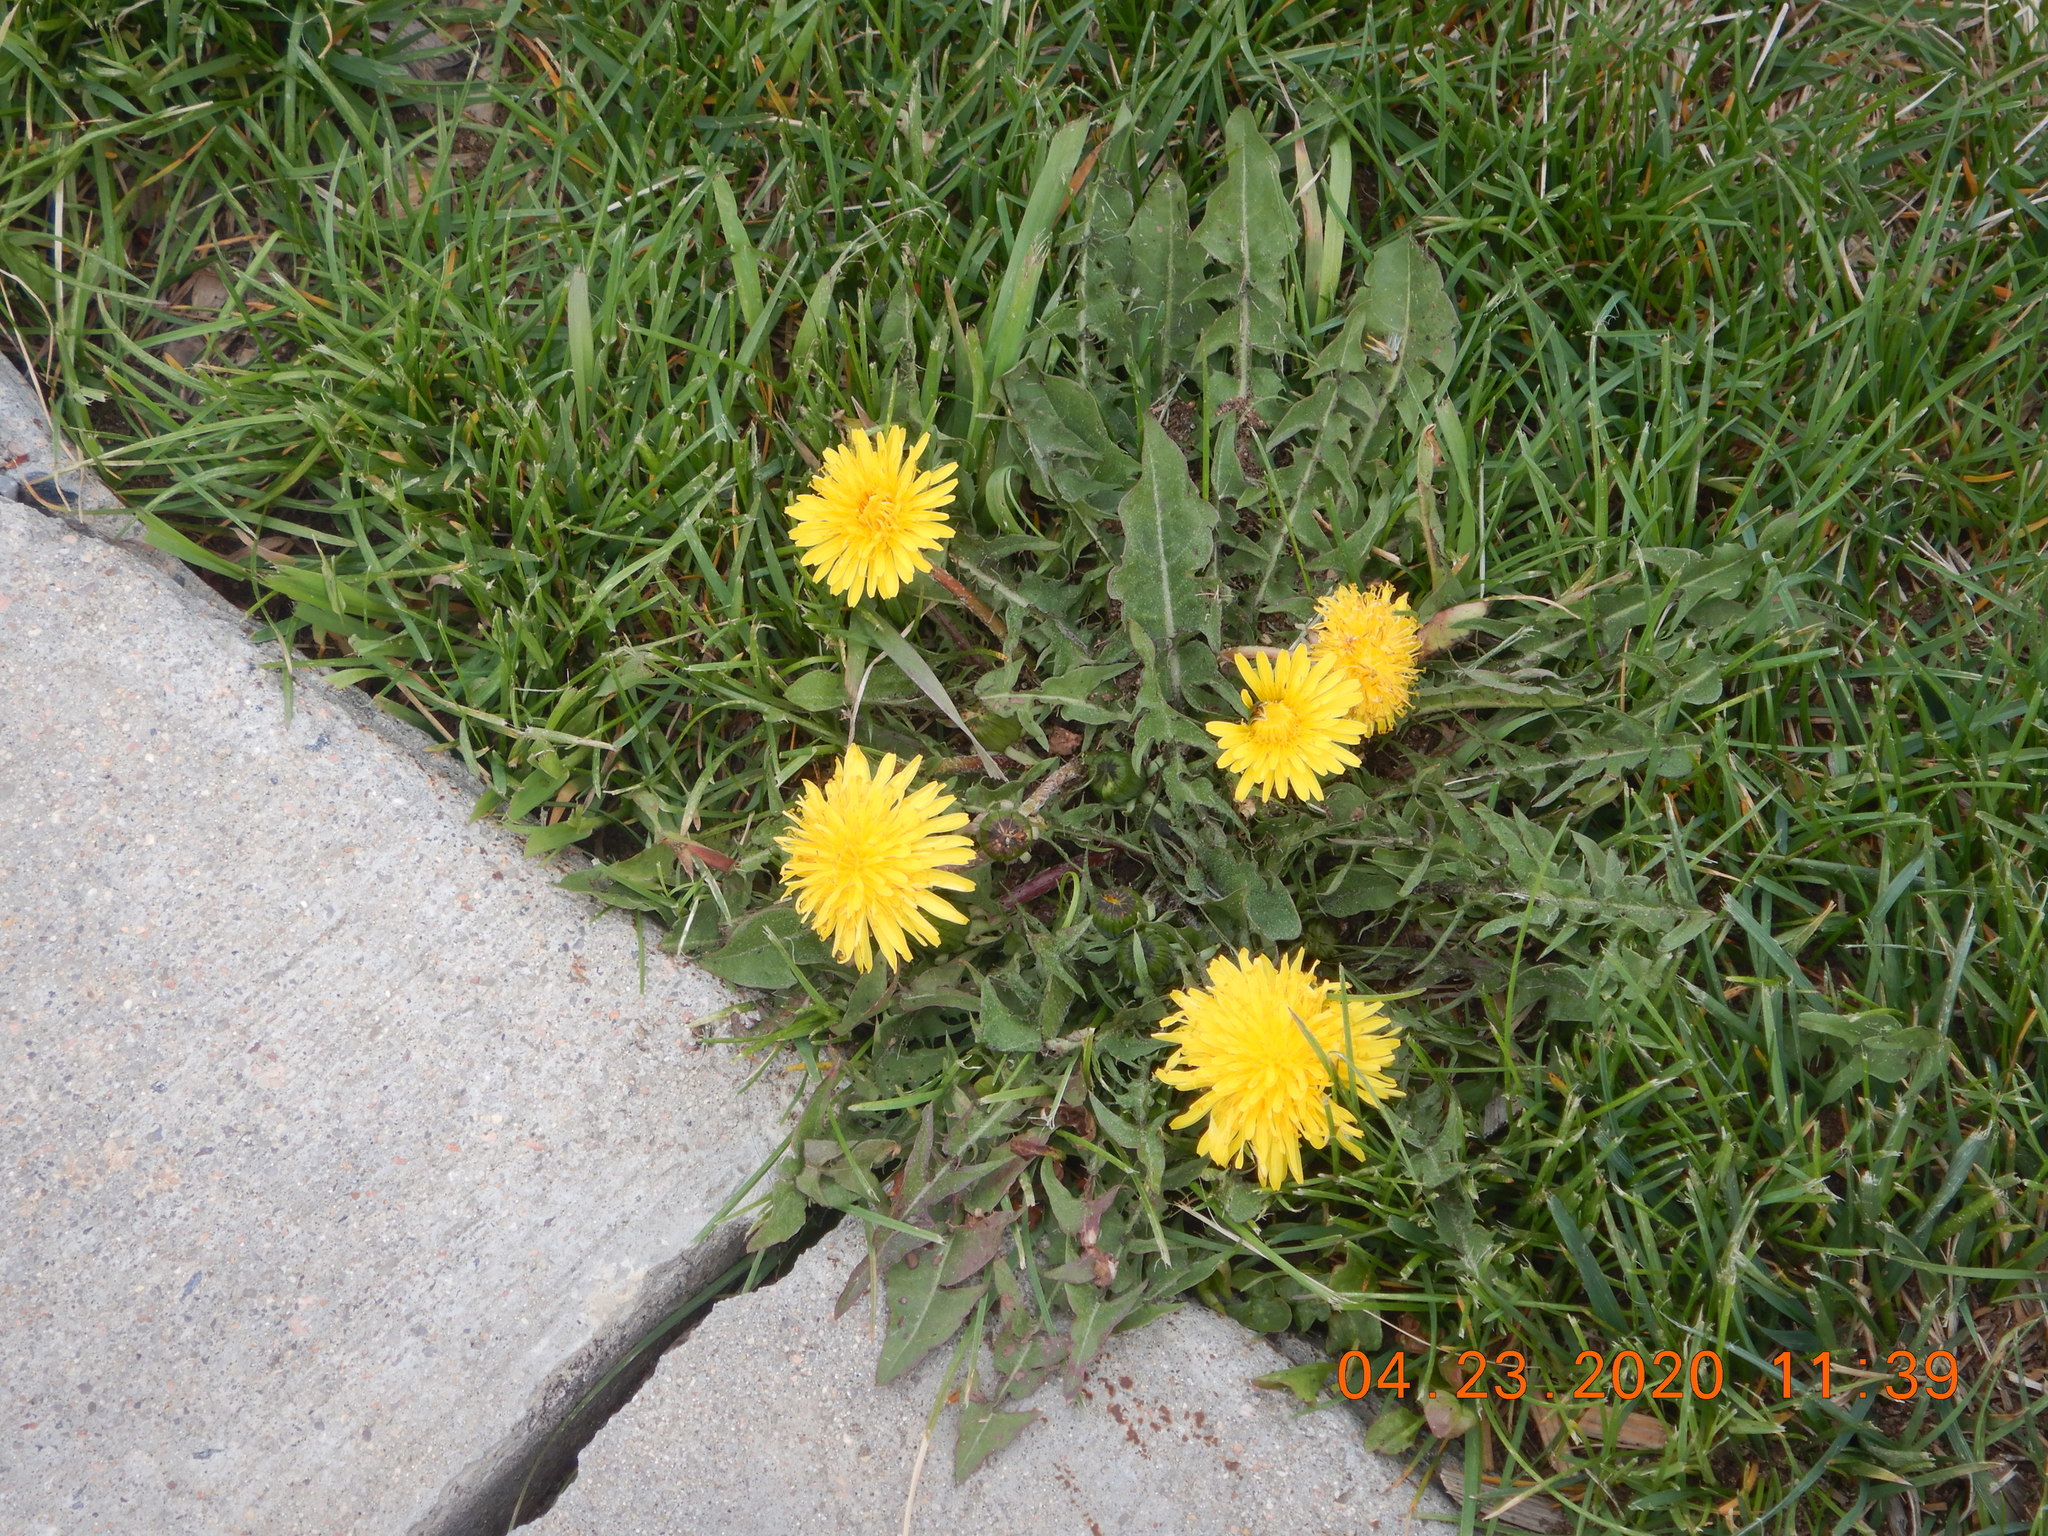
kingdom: Plantae
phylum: Tracheophyta
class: Magnoliopsida
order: Asterales
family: Asteraceae
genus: Taraxacum
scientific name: Taraxacum officinale
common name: Common dandelion
